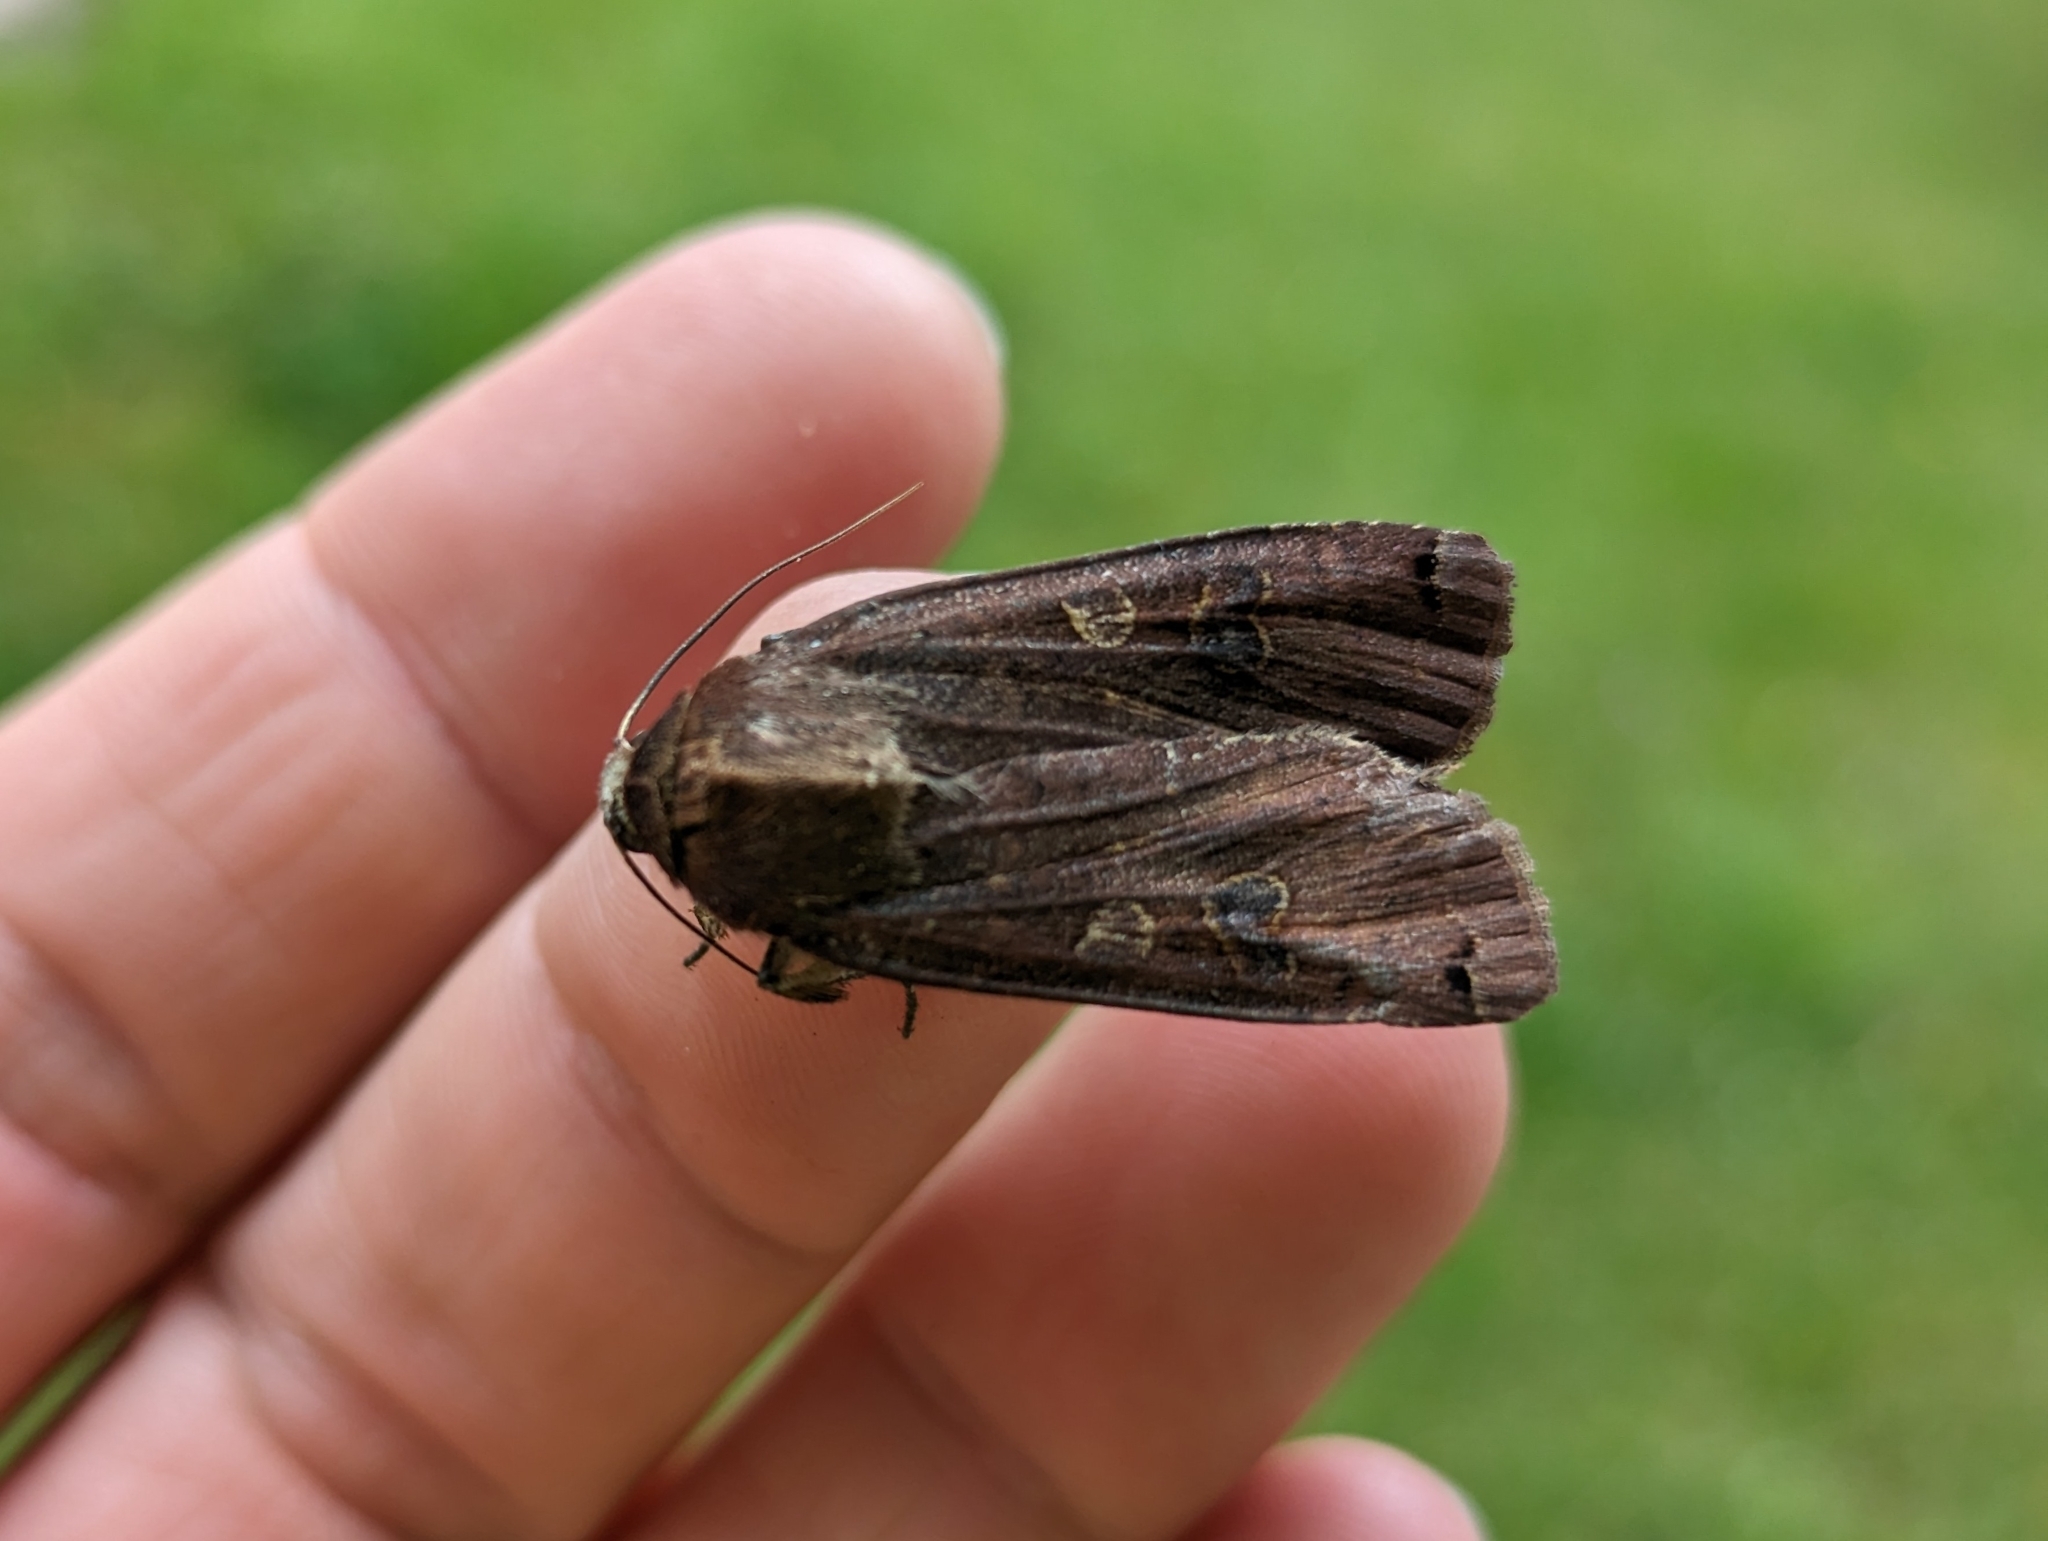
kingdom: Animalia
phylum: Arthropoda
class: Insecta
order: Lepidoptera
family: Noctuidae
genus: Noctua
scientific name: Noctua pronuba
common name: Large yellow underwing
